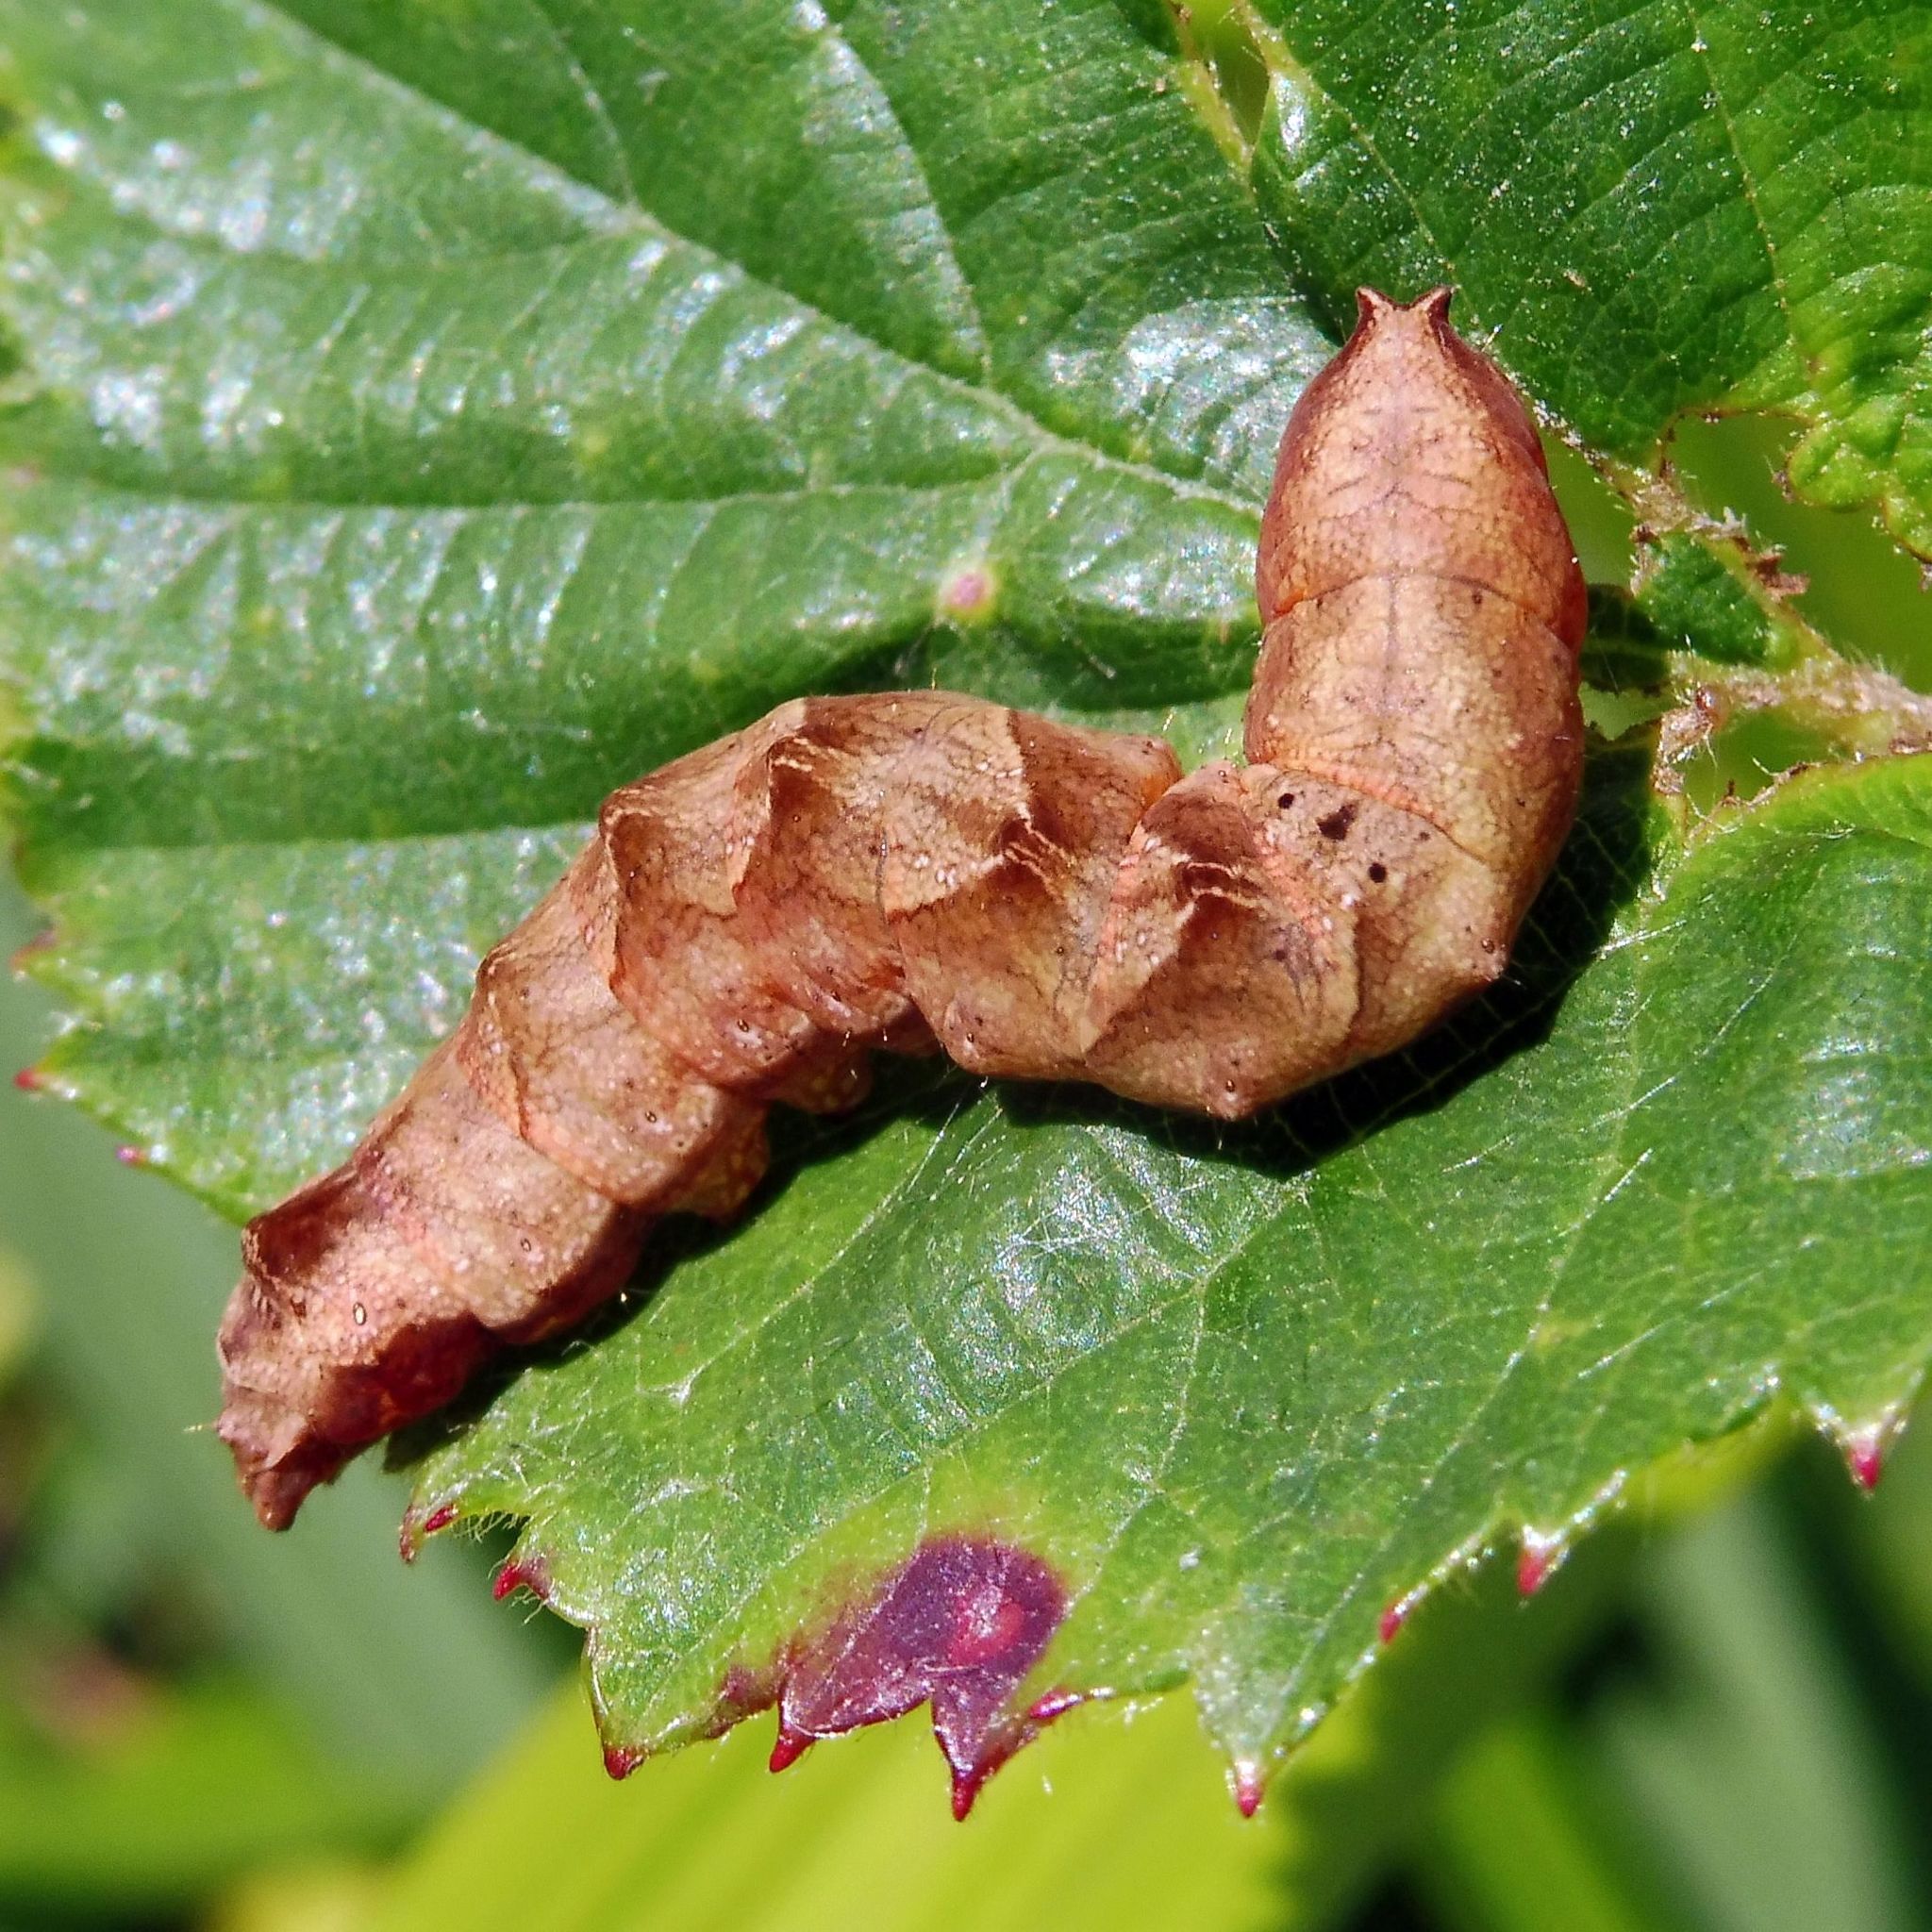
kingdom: Animalia
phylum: Arthropoda
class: Insecta
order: Lepidoptera
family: Drepanidae
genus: Thyatira
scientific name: Thyatira batis
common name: Peach blossom
